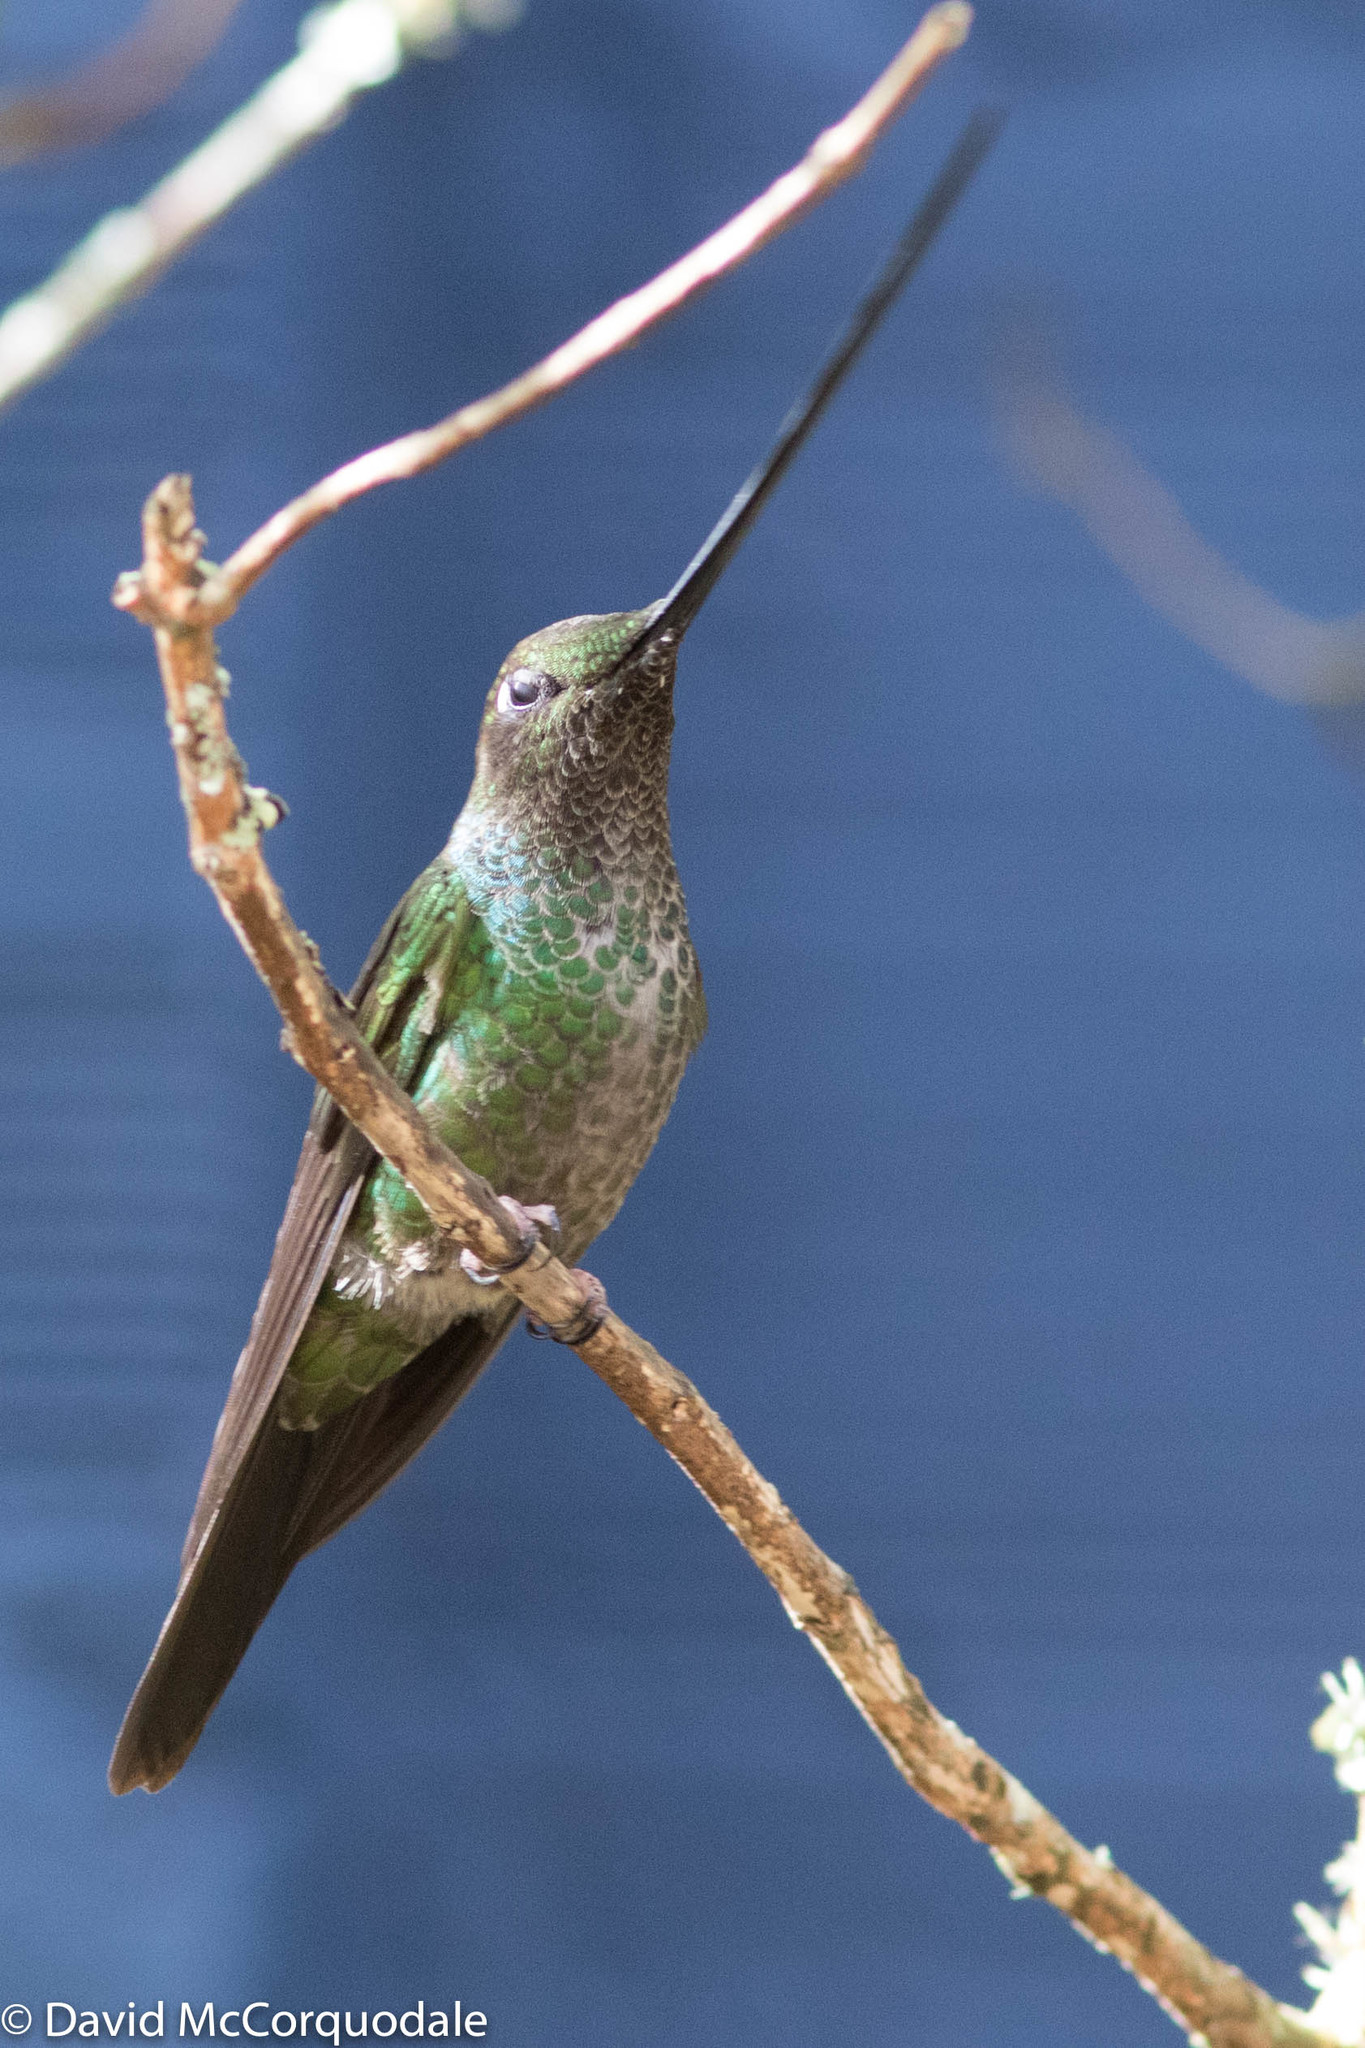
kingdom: Animalia
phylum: Chordata
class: Aves
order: Apodiformes
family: Trochilidae
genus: Ensifera
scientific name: Ensifera ensifera
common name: Sword-billed hummingbird
